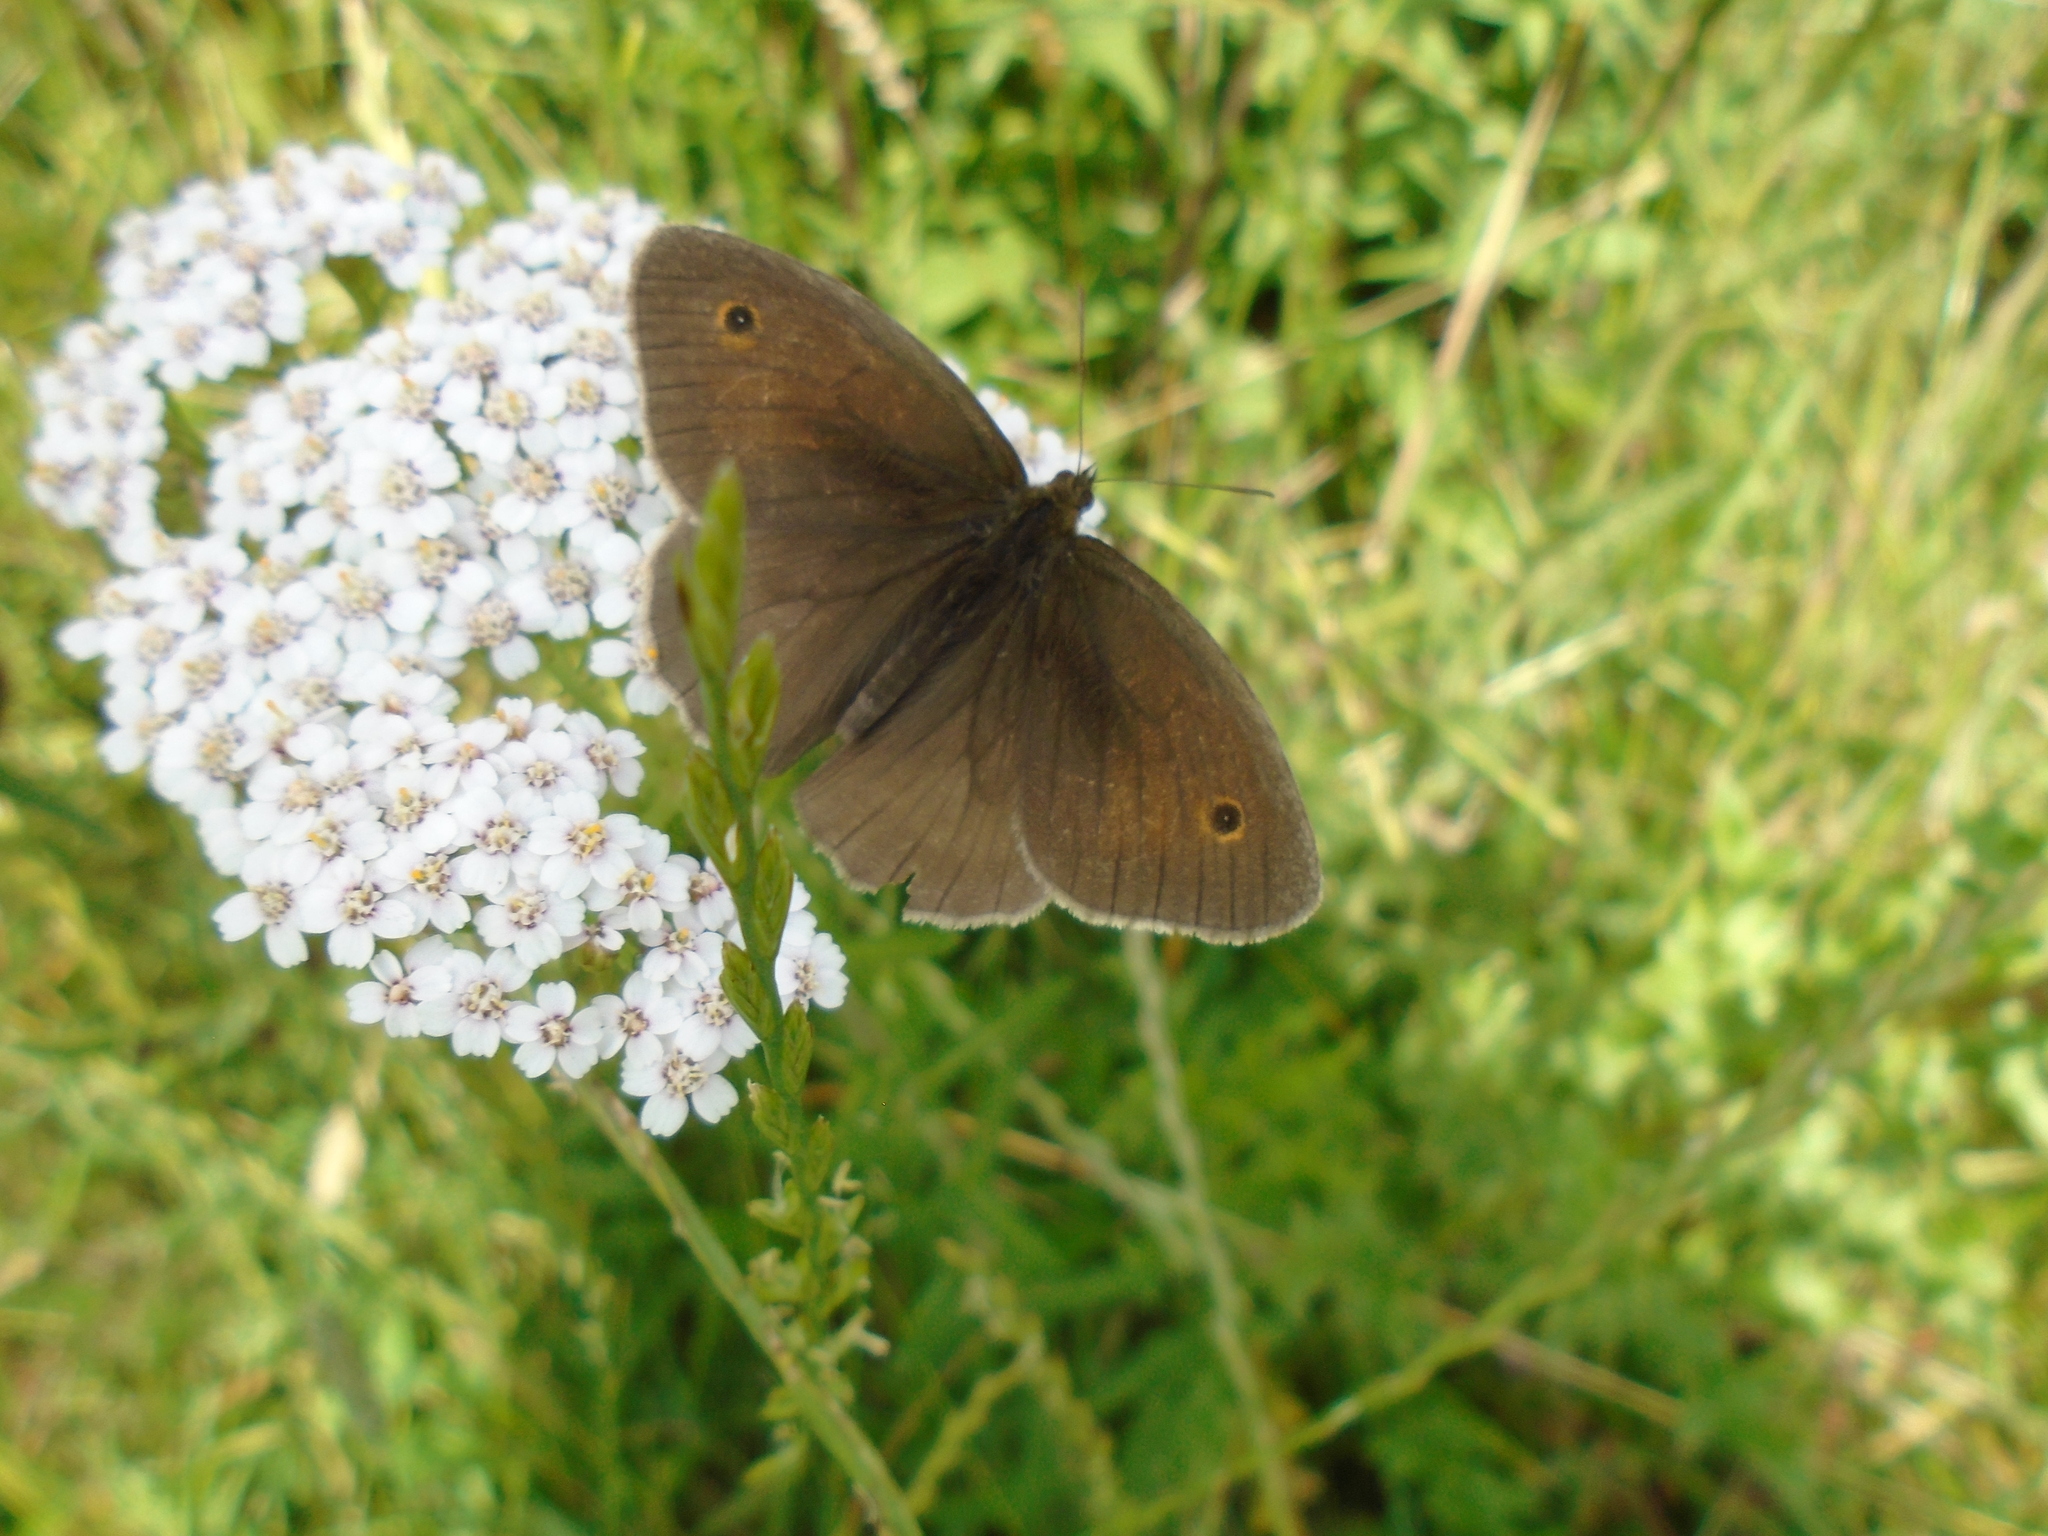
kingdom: Animalia
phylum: Arthropoda
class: Insecta
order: Lepidoptera
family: Nymphalidae
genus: Maniola
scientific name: Maniola jurtina
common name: Meadow brown
